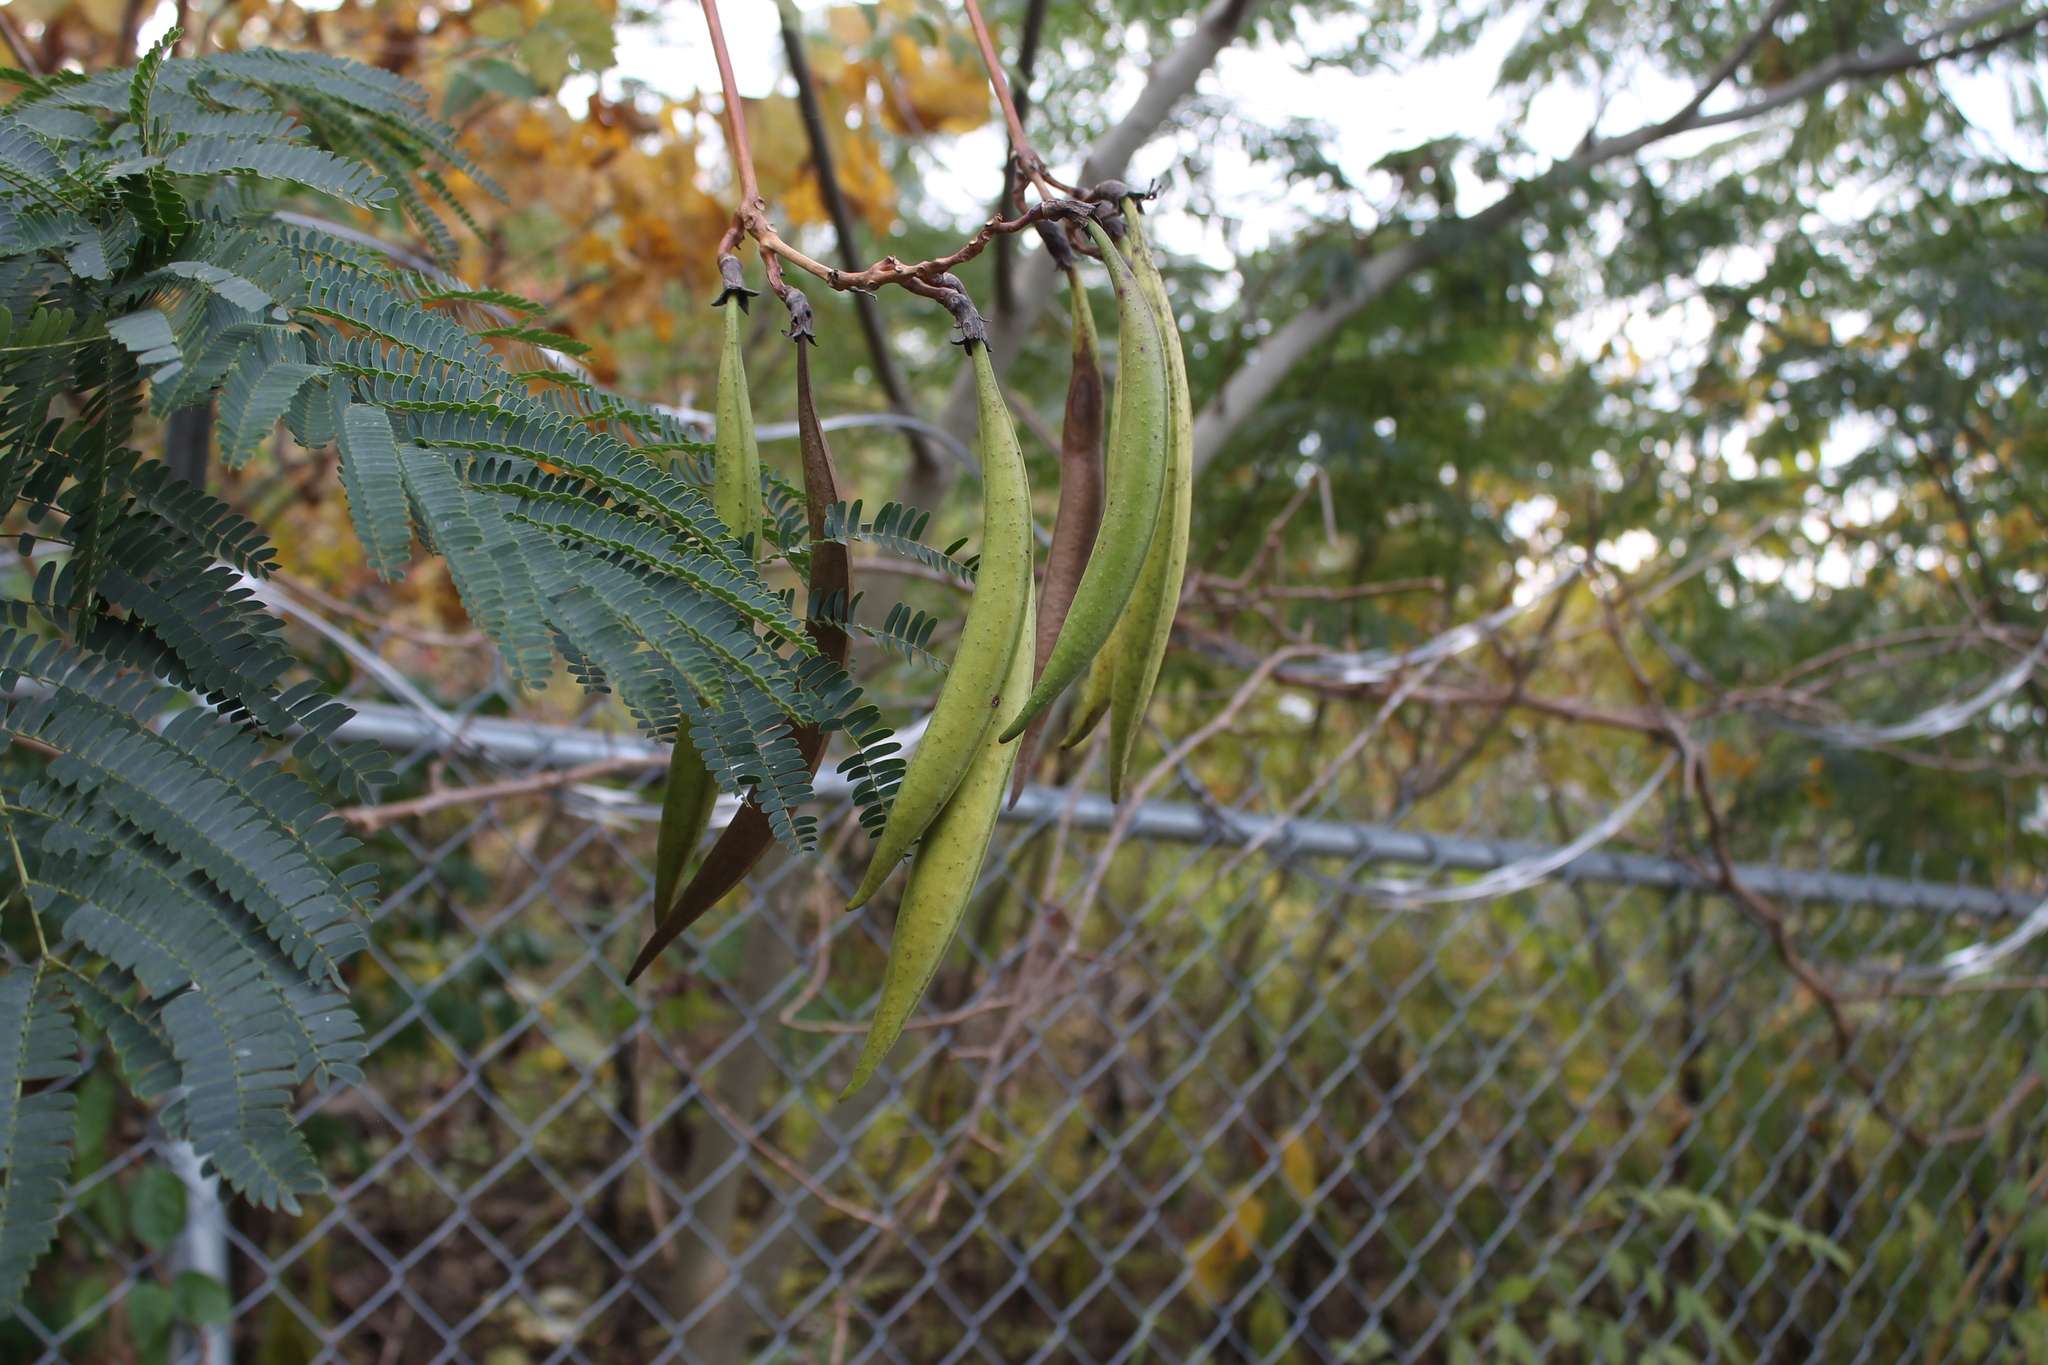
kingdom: Plantae
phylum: Tracheophyta
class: Magnoliopsida
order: Lamiales
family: Bignoniaceae
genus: Campsis
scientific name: Campsis radicans
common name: Trumpet-creeper
